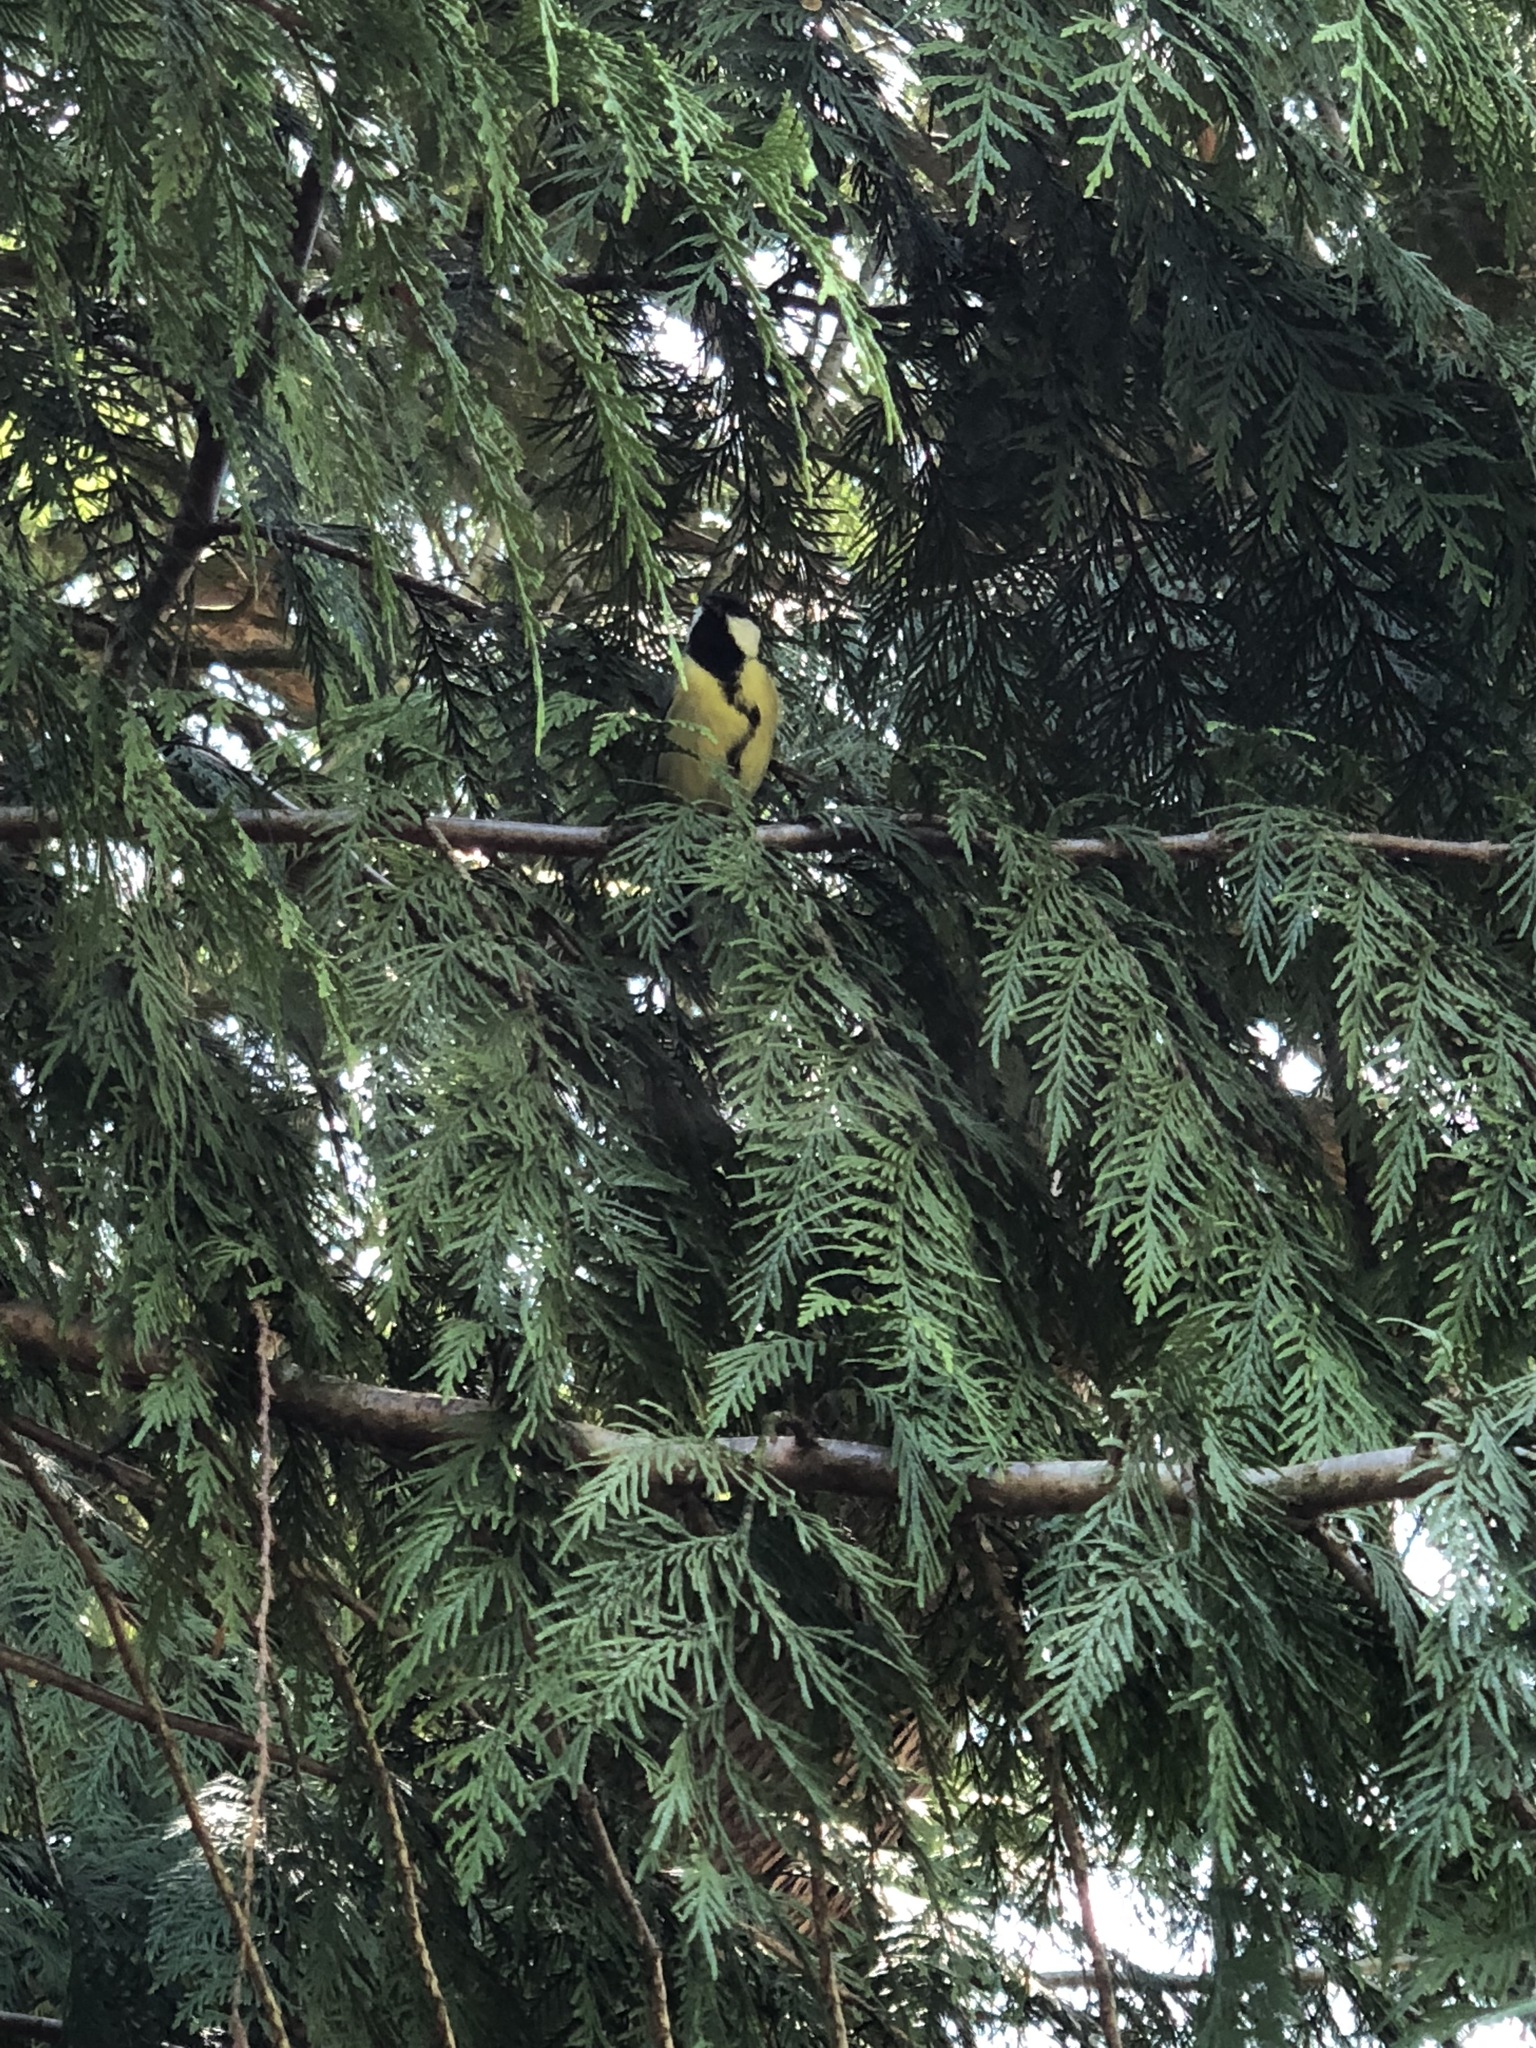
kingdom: Animalia
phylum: Chordata
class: Aves
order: Passeriformes
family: Paridae
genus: Parus
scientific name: Parus major
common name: Great tit
